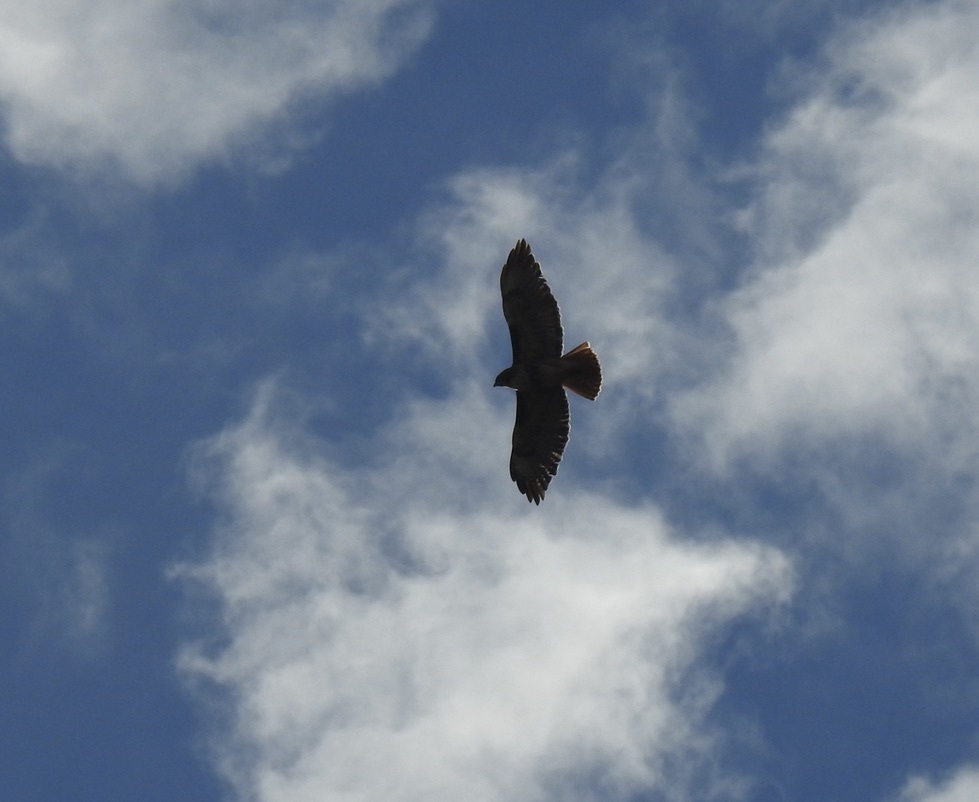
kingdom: Animalia
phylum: Chordata
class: Aves
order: Accipitriformes
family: Accipitridae
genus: Buteo
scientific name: Buteo jamaicensis
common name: Red-tailed hawk
